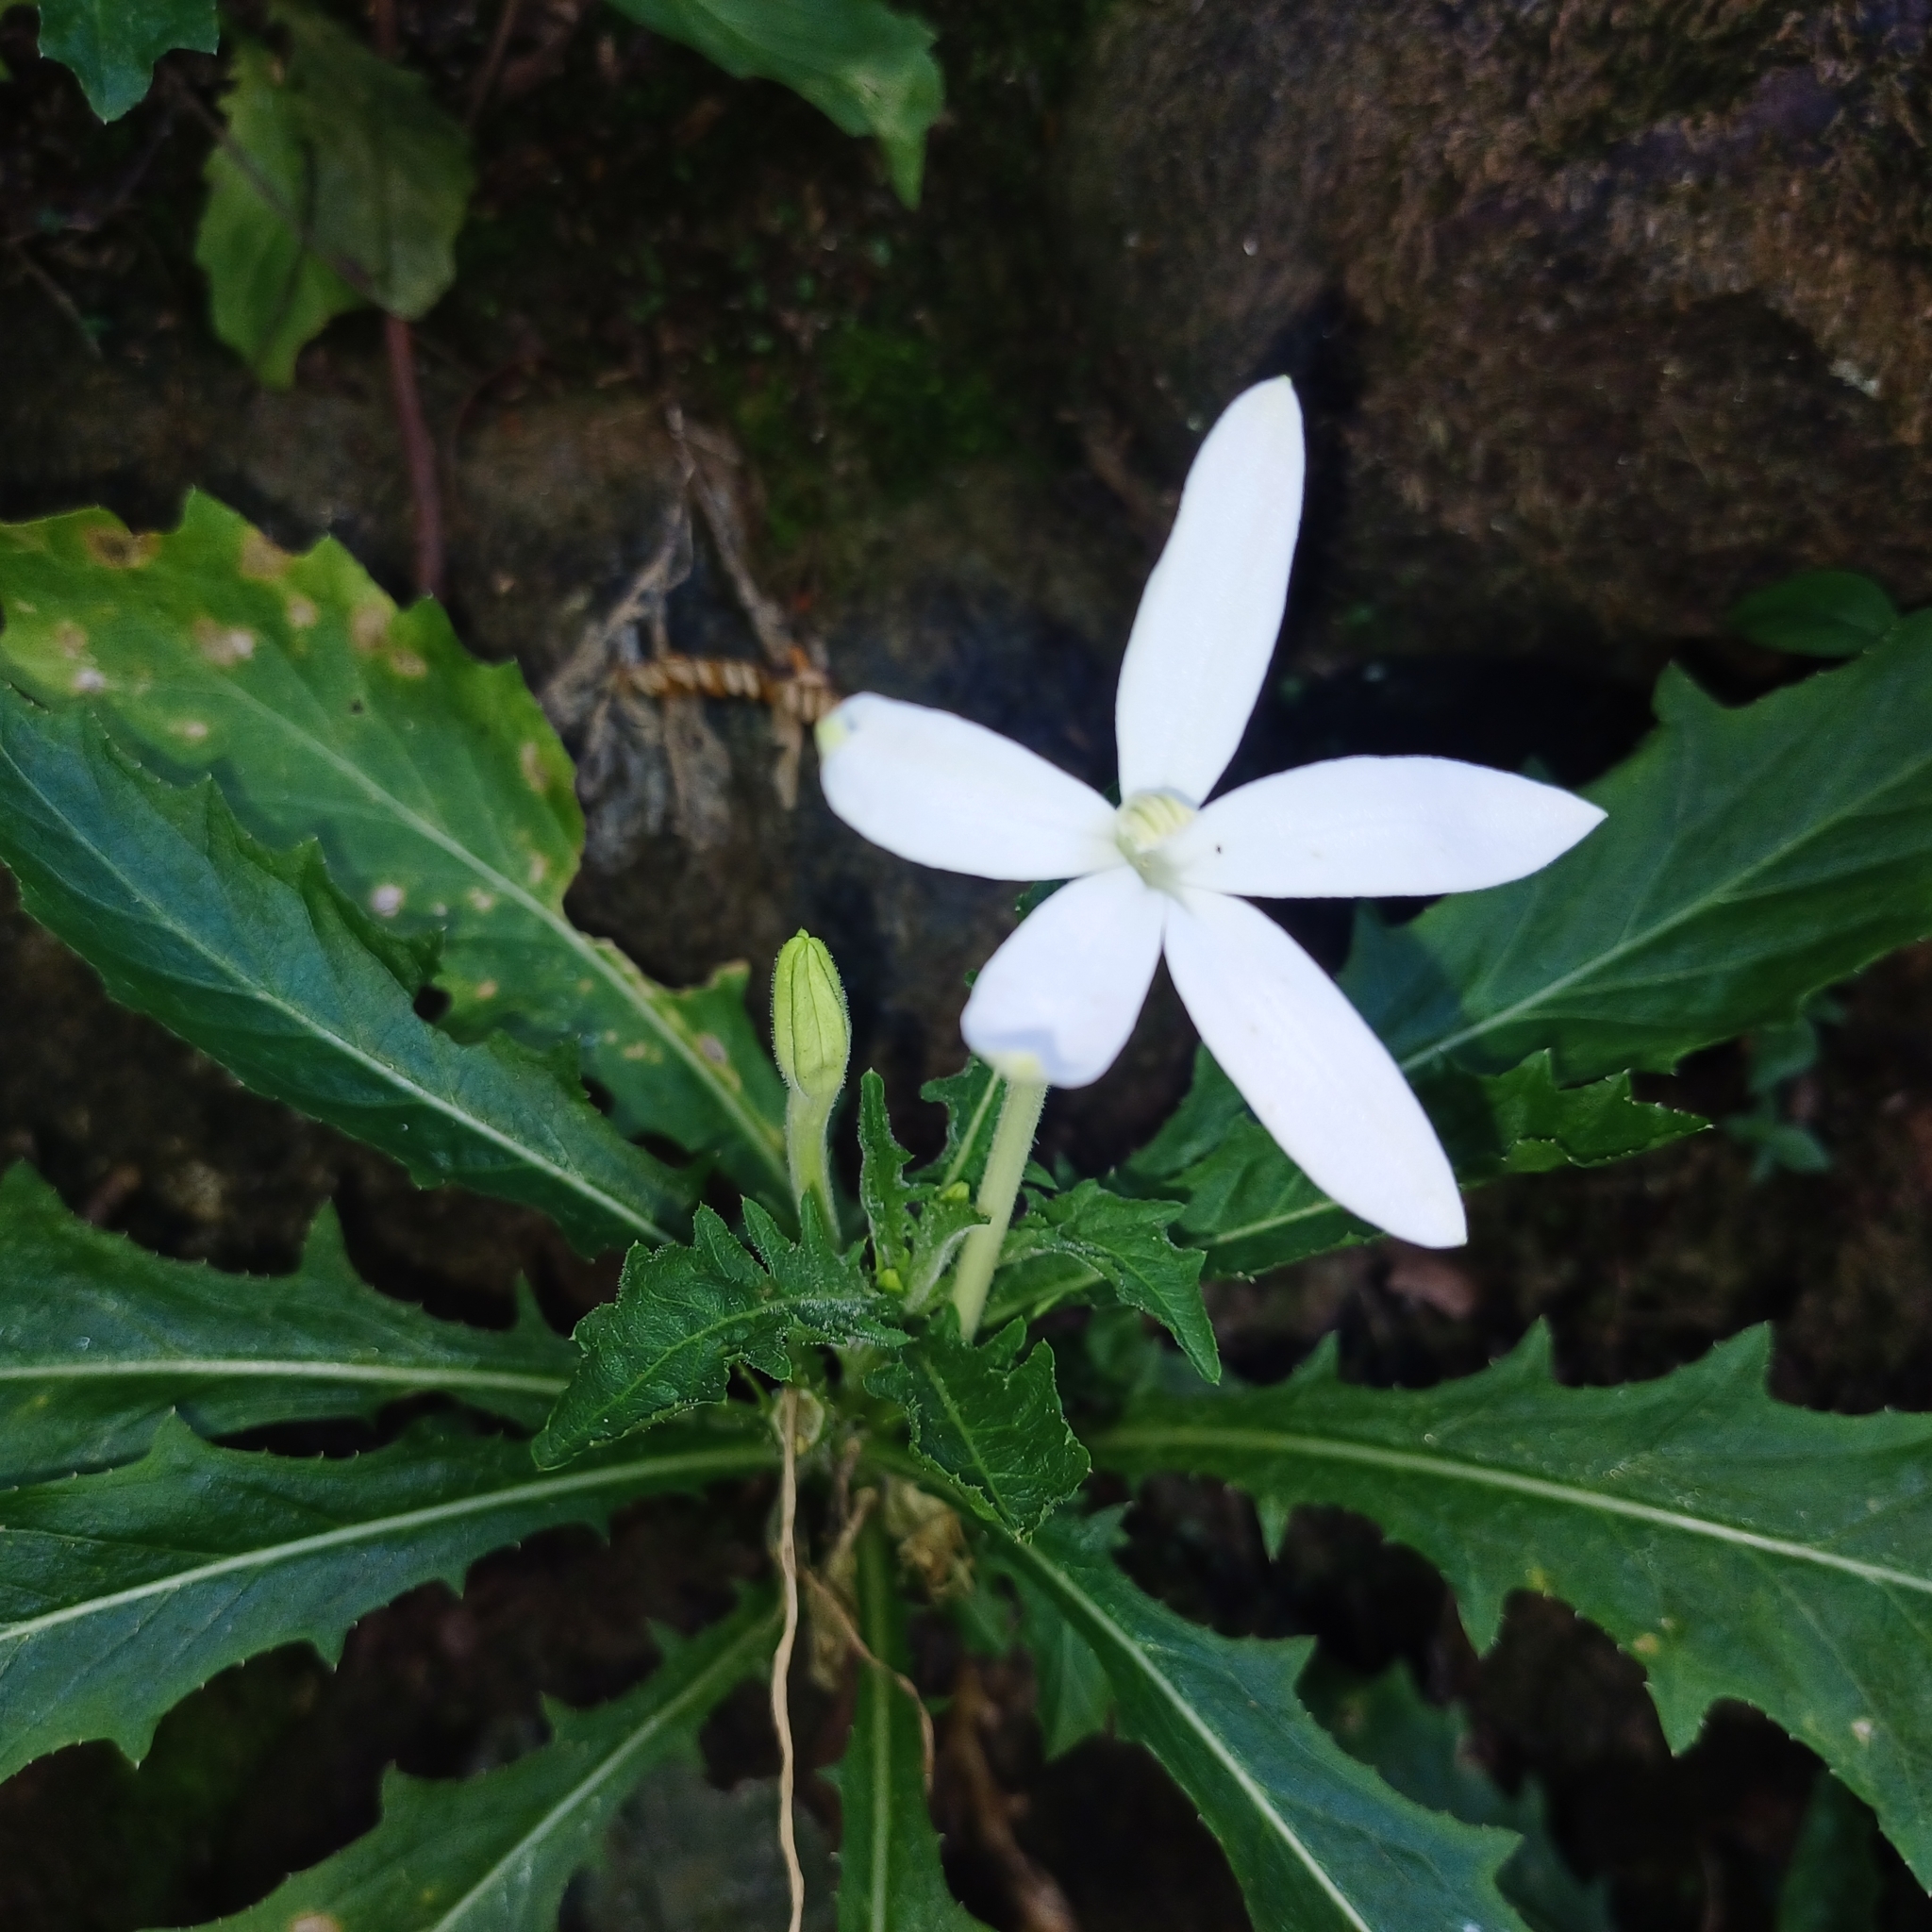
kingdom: Plantae
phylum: Tracheophyta
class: Magnoliopsida
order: Asterales
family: Campanulaceae
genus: Hippobroma
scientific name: Hippobroma longiflora
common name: Madamfate
